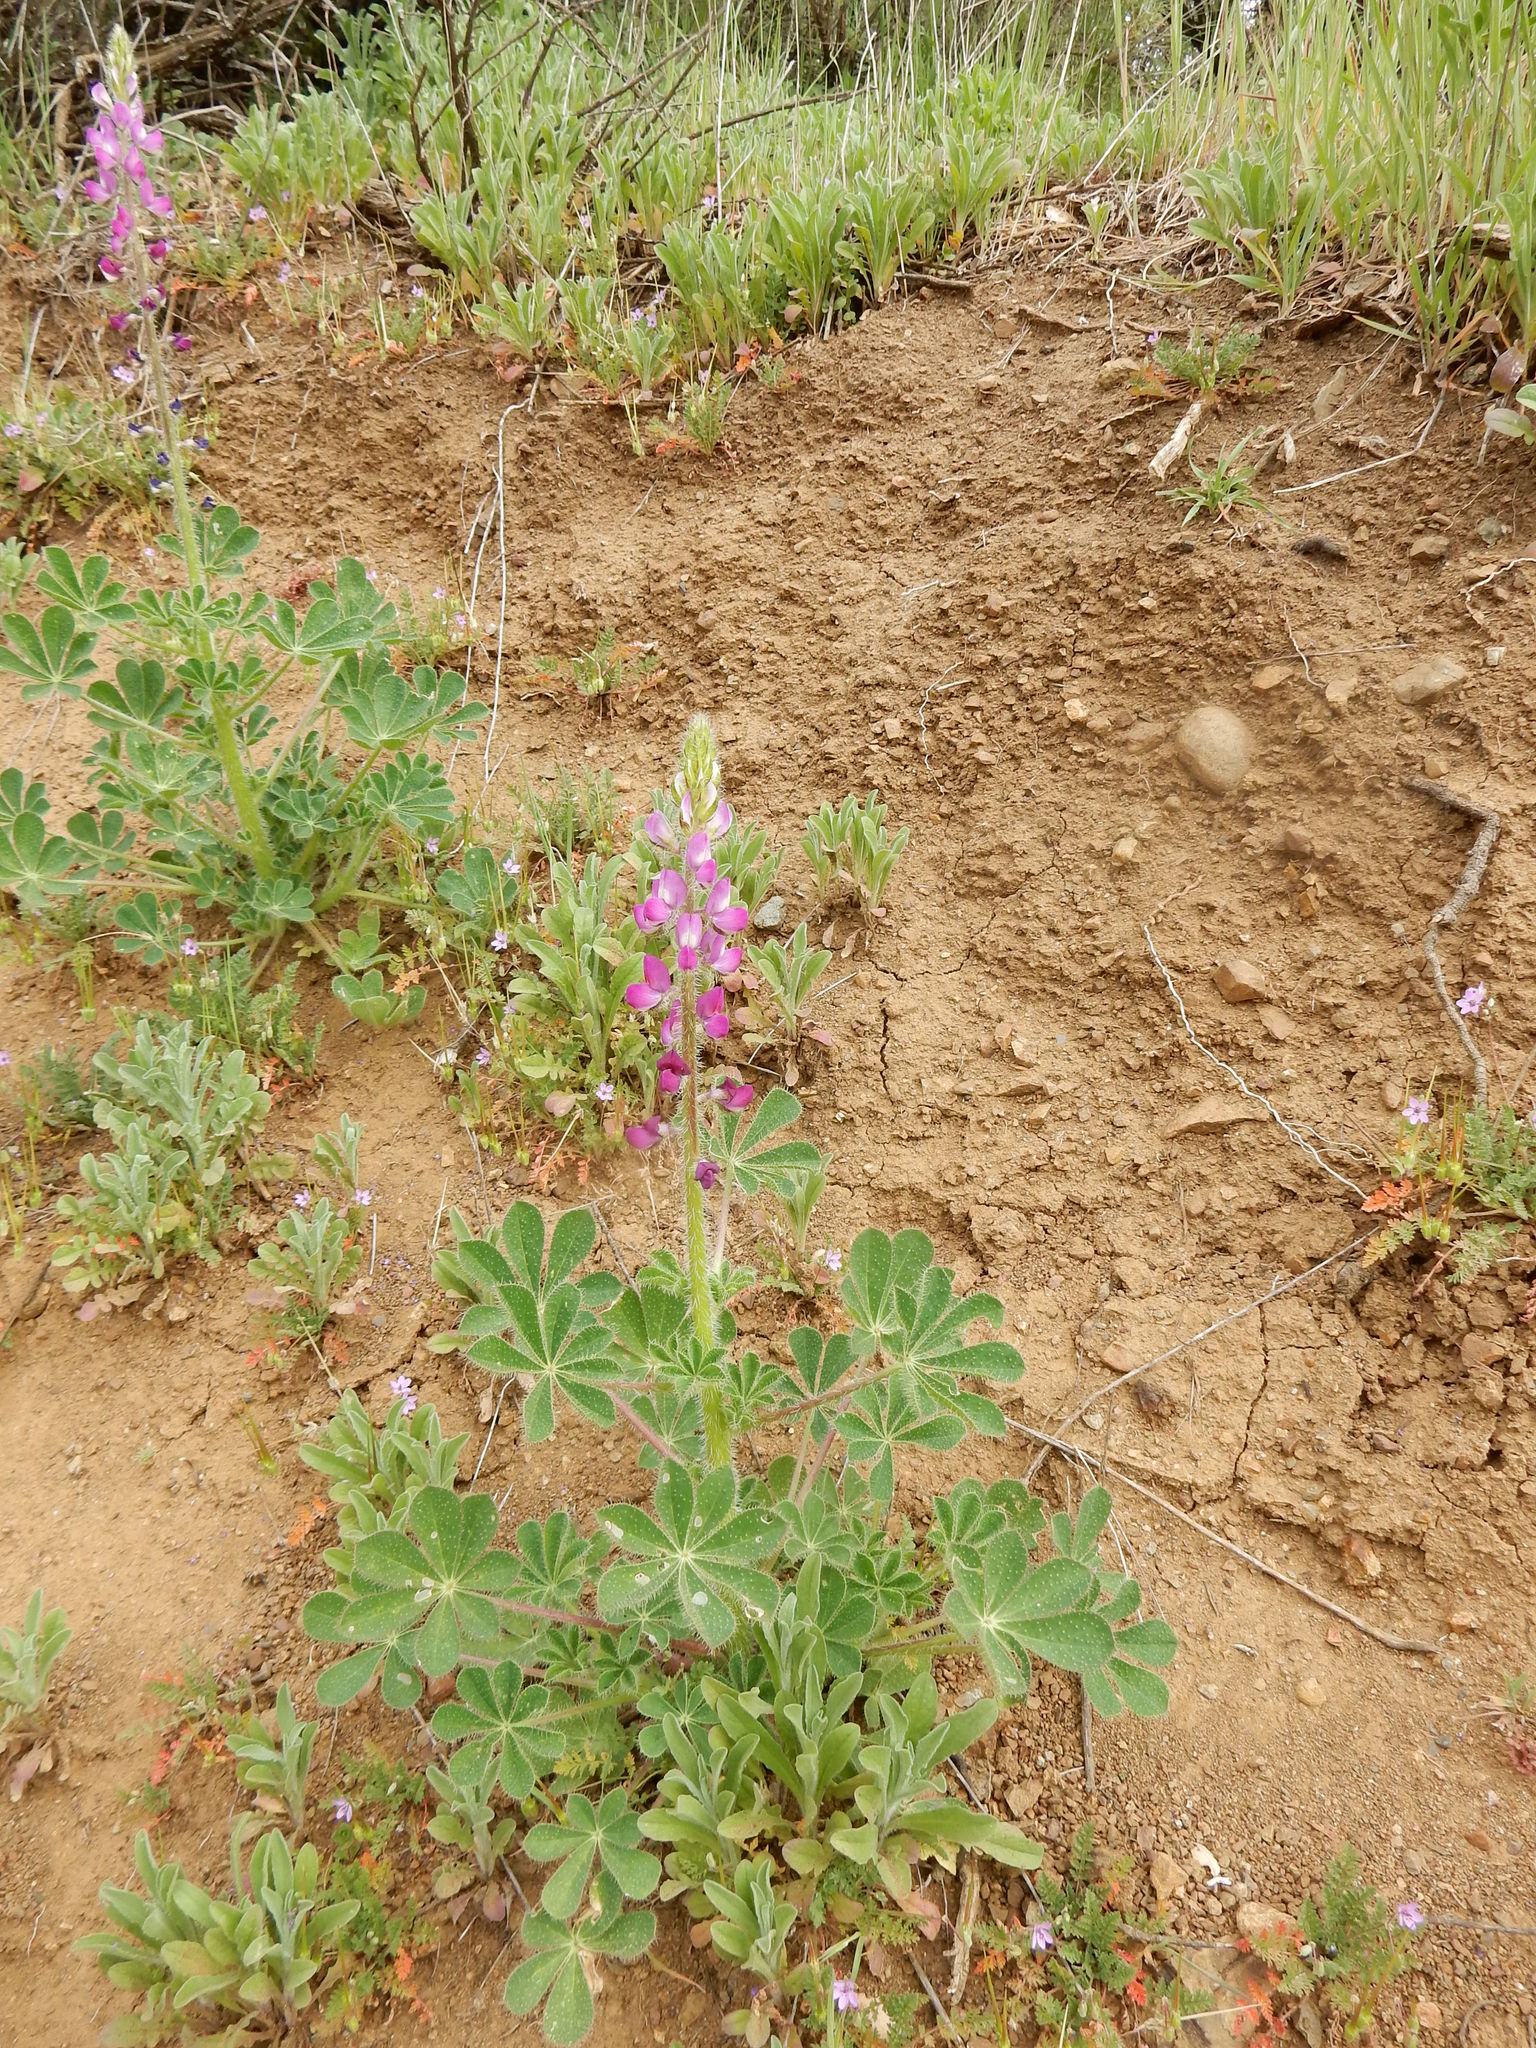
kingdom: Plantae
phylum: Tracheophyta
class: Magnoliopsida
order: Fabales
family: Fabaceae
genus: Lupinus
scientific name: Lupinus hirsutissimus
